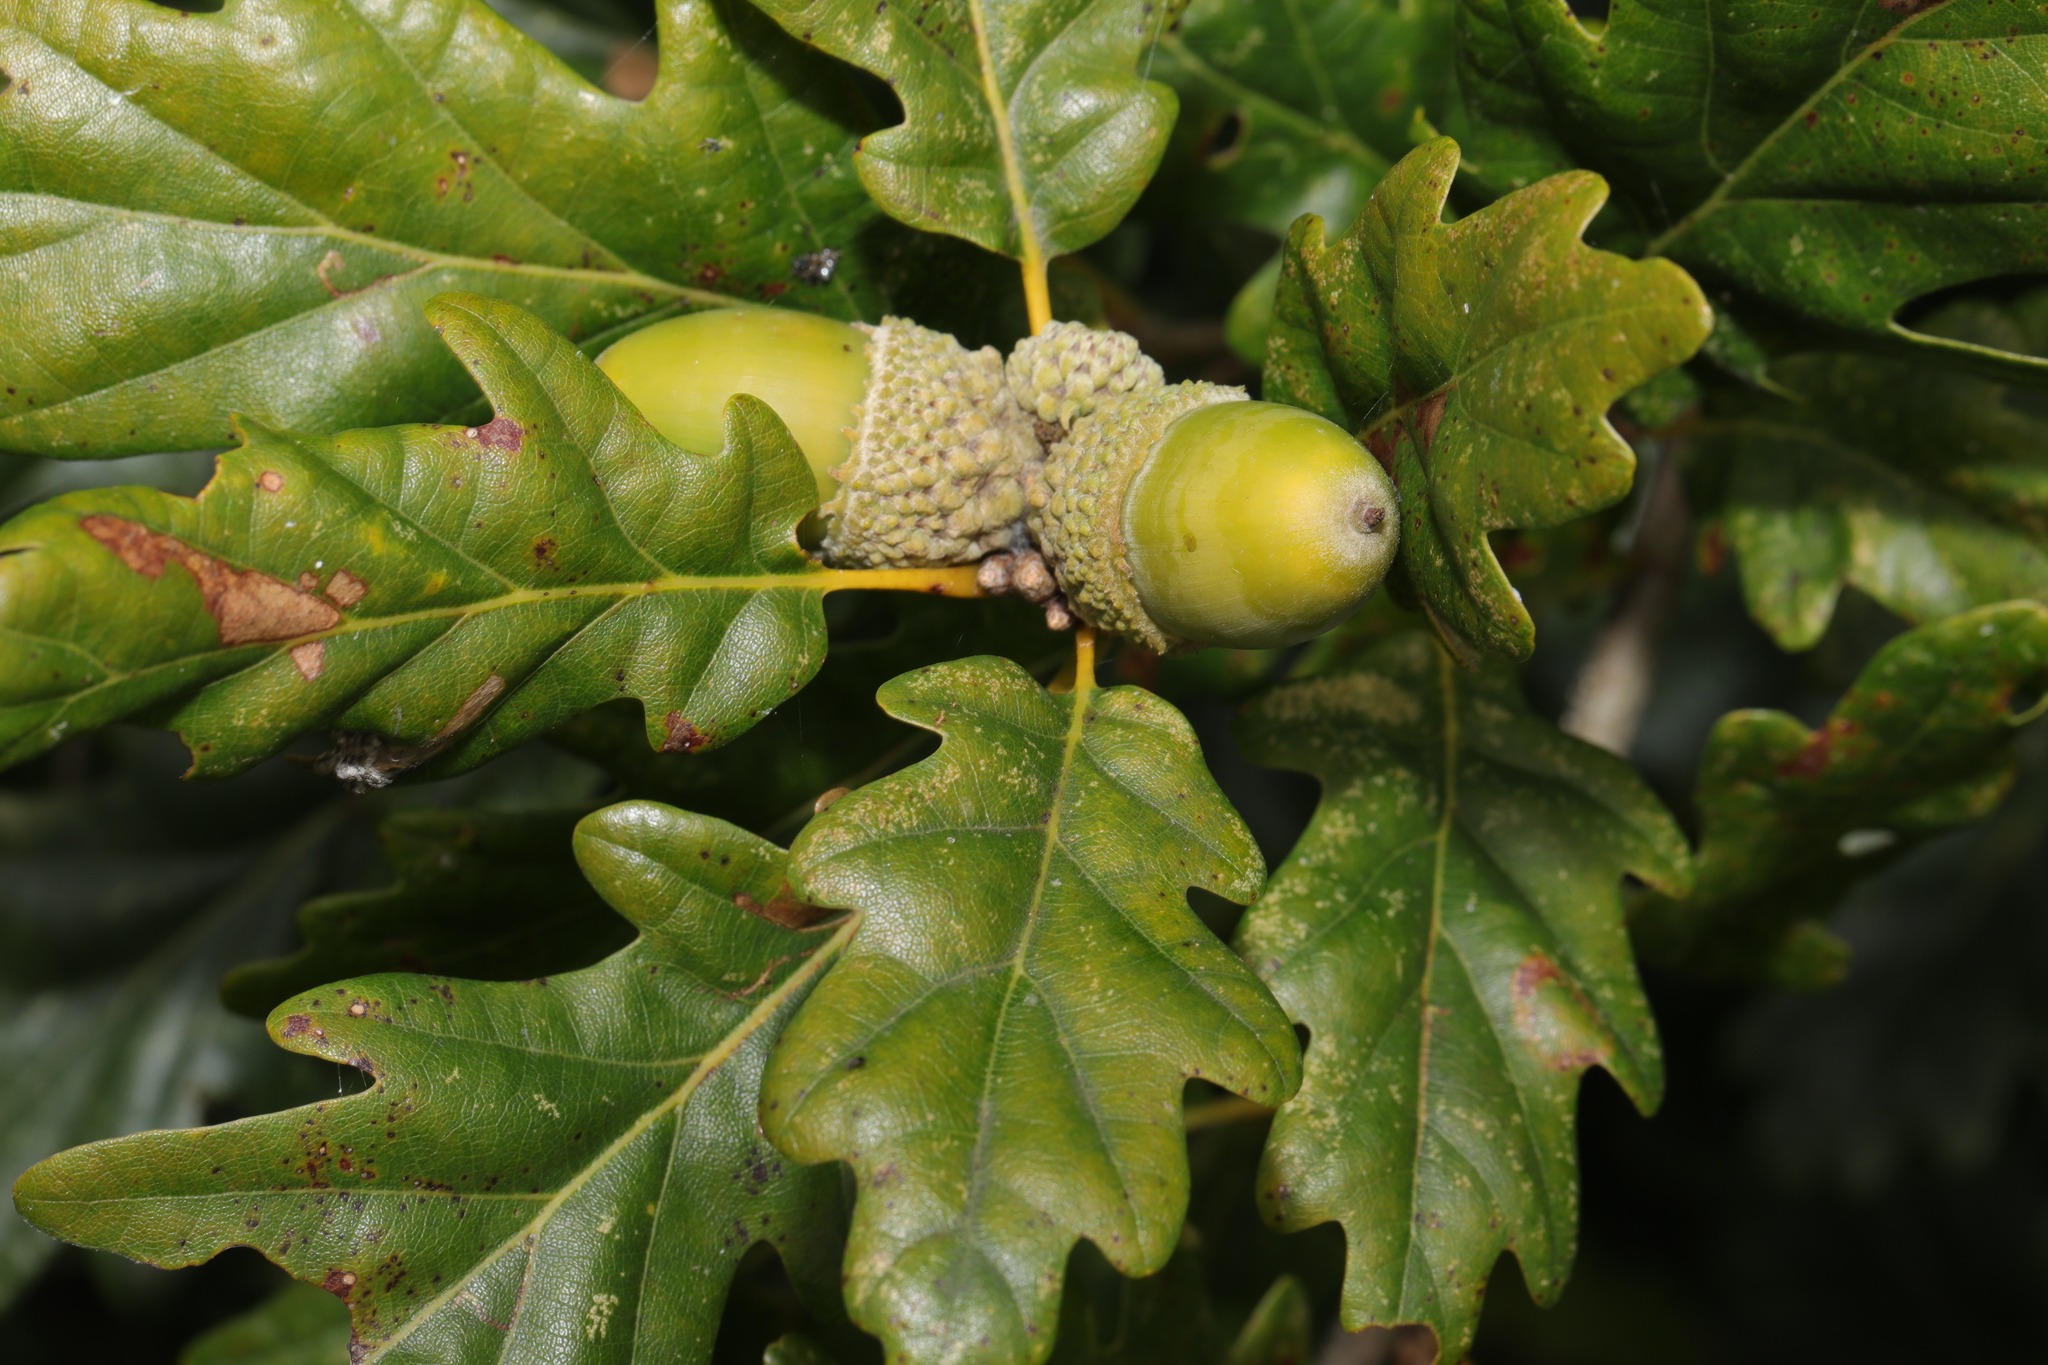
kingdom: Plantae
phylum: Tracheophyta
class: Magnoliopsida
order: Fagales
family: Fagaceae
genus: Quercus
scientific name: Quercus petraea
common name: Sessile oak
